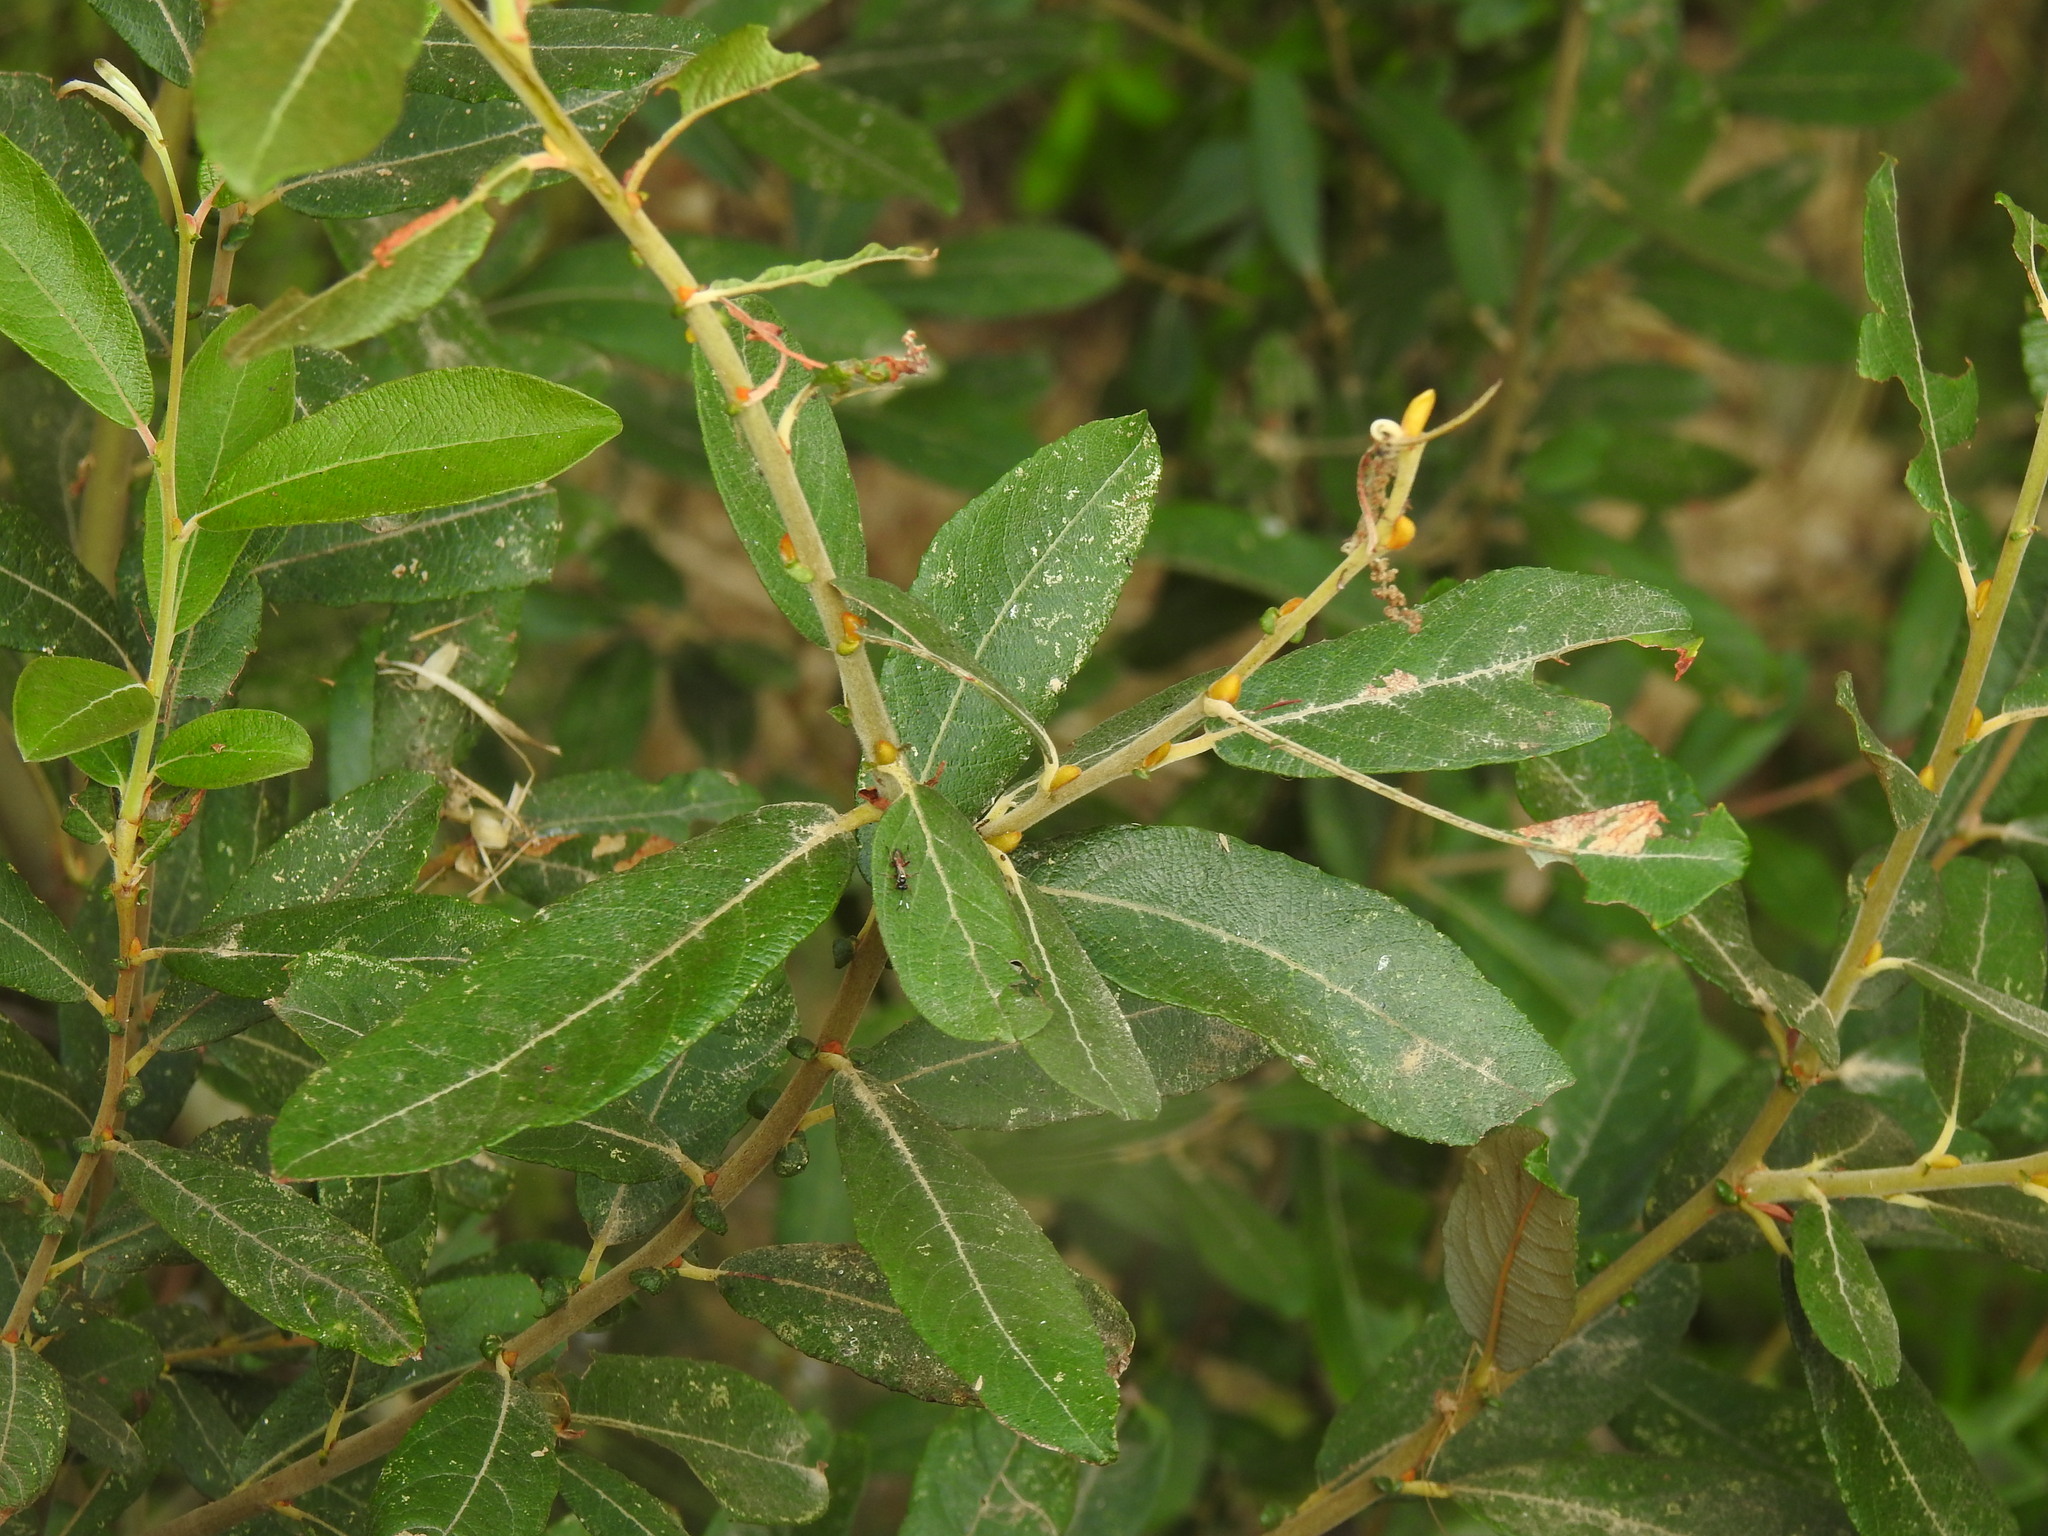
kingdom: Plantae
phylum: Tracheophyta
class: Magnoliopsida
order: Malpighiales
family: Salicaceae
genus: Salix
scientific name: Salix atrocinerea
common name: Rusty willow
